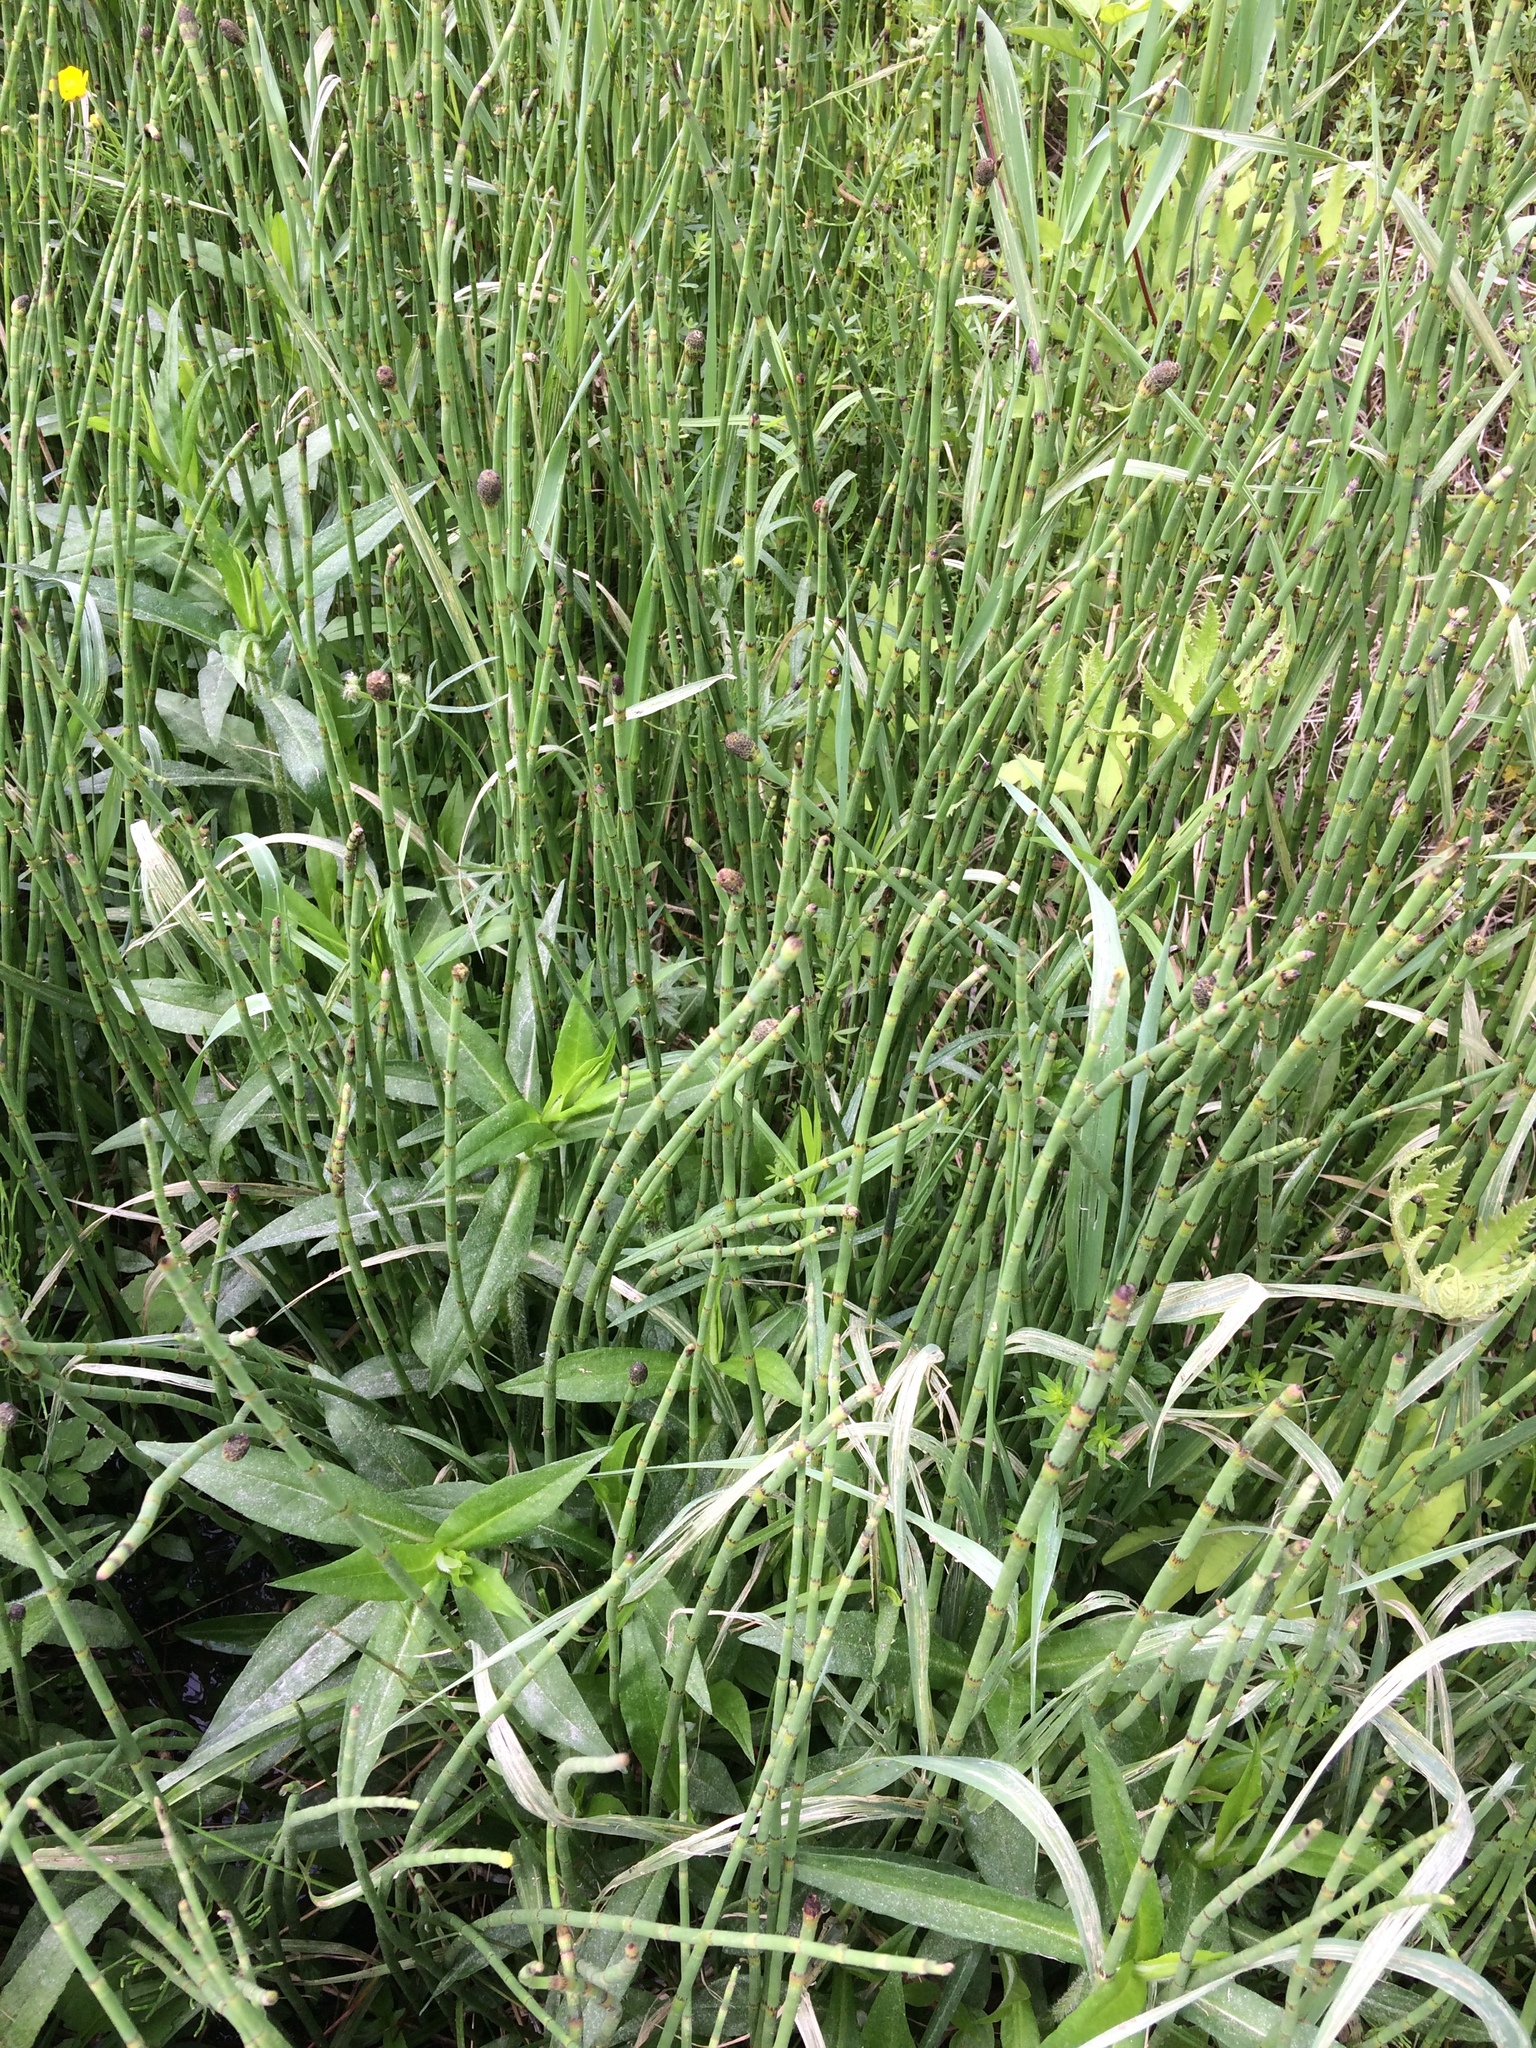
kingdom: Plantae
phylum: Tracheophyta
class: Polypodiopsida
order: Equisetales
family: Equisetaceae
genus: Equisetum
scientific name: Equisetum fluviatile
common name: Water horsetail
